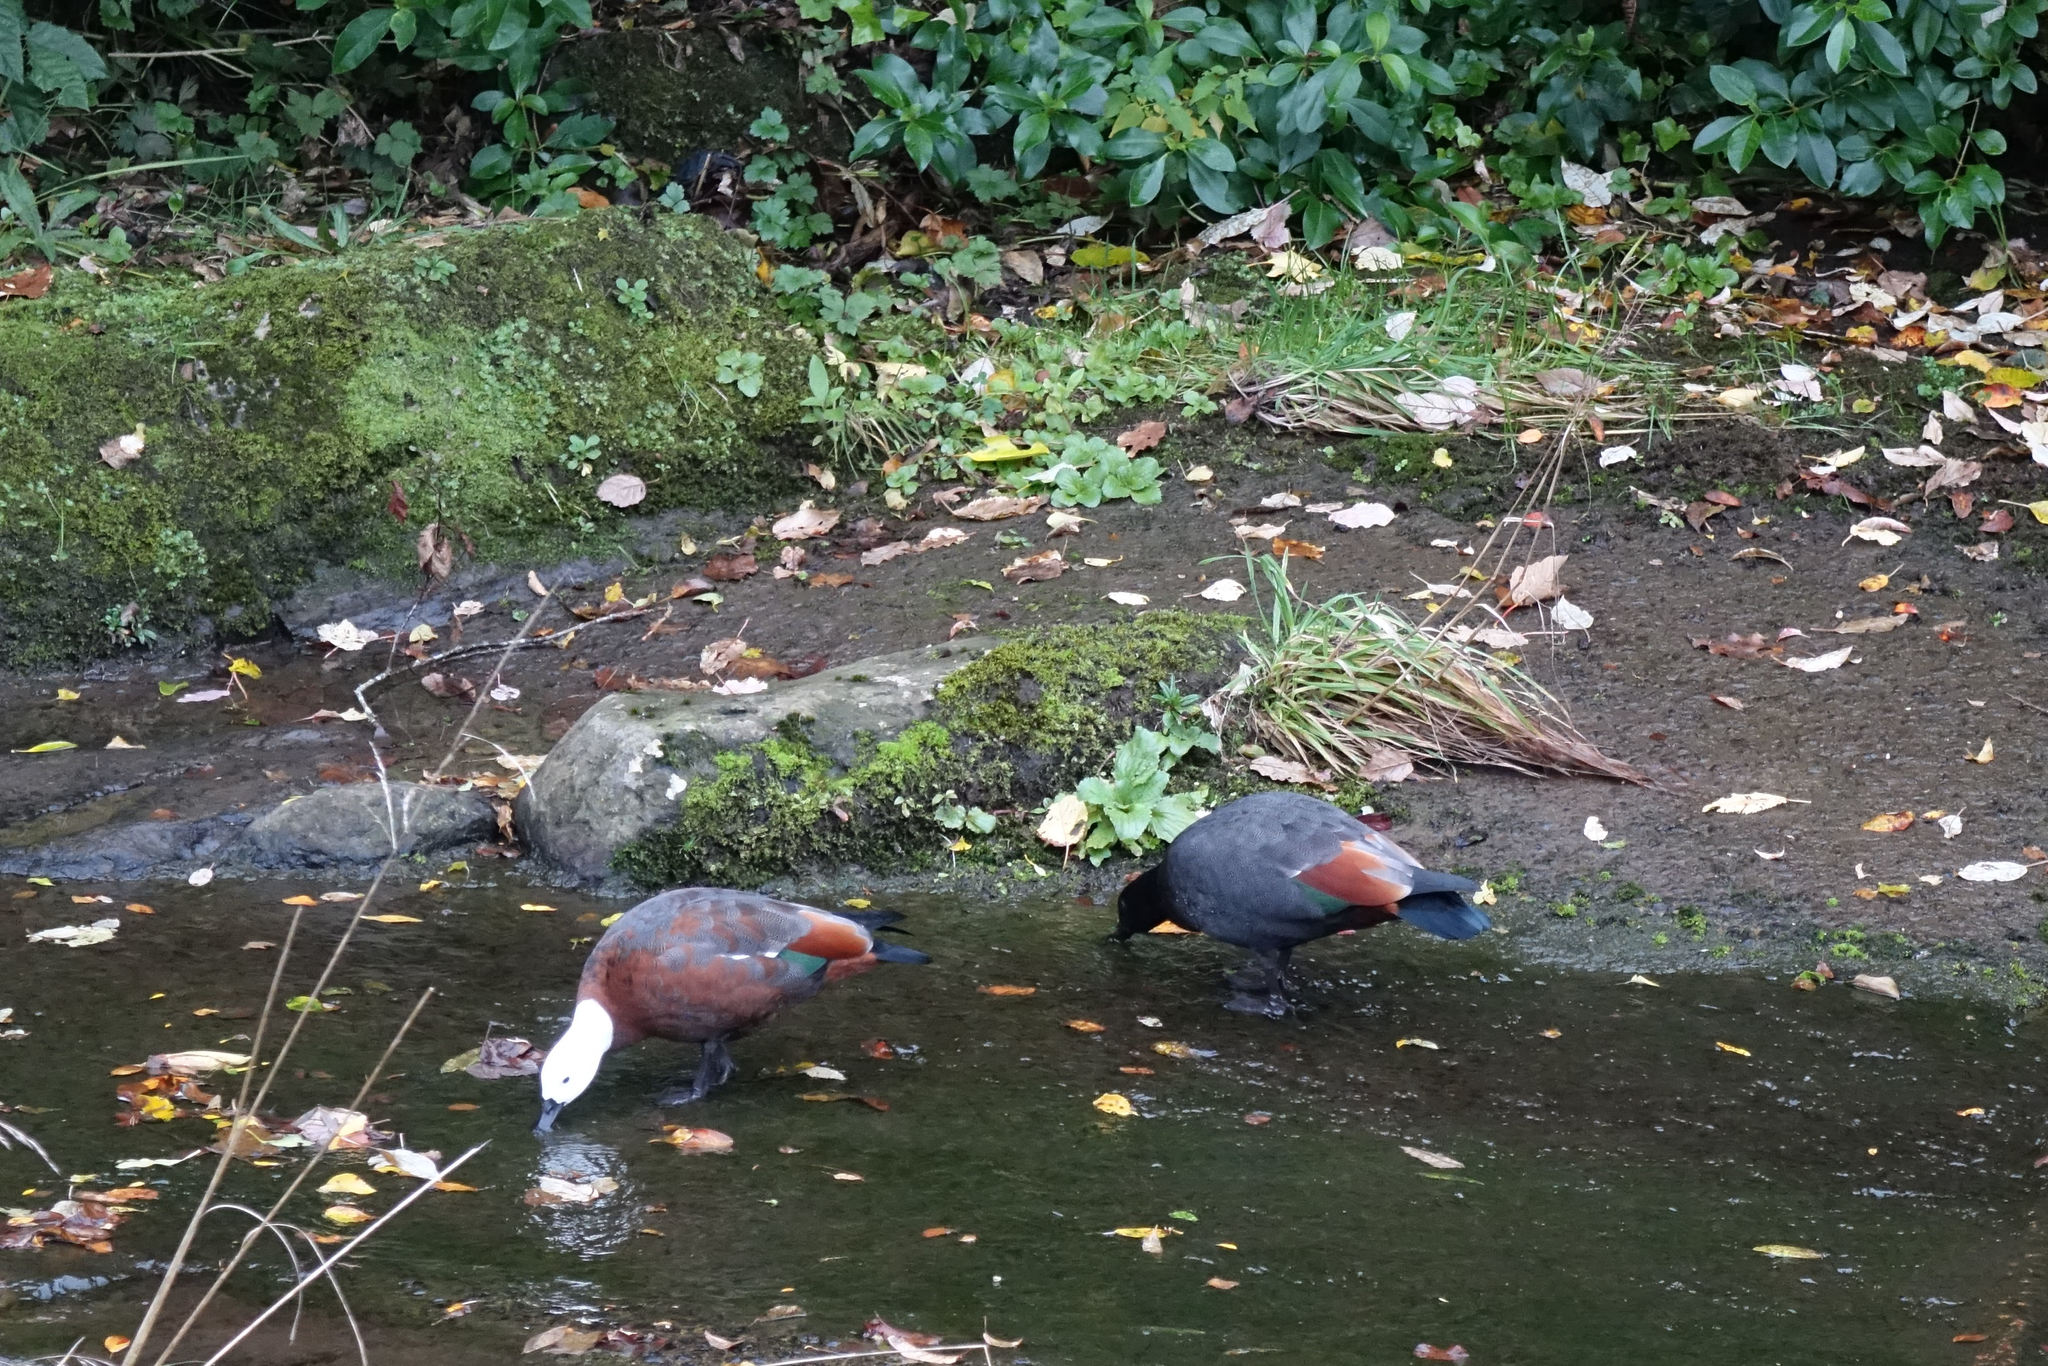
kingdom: Animalia
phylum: Chordata
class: Aves
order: Anseriformes
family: Anatidae
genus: Tadorna
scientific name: Tadorna variegata
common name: Paradise shelduck
